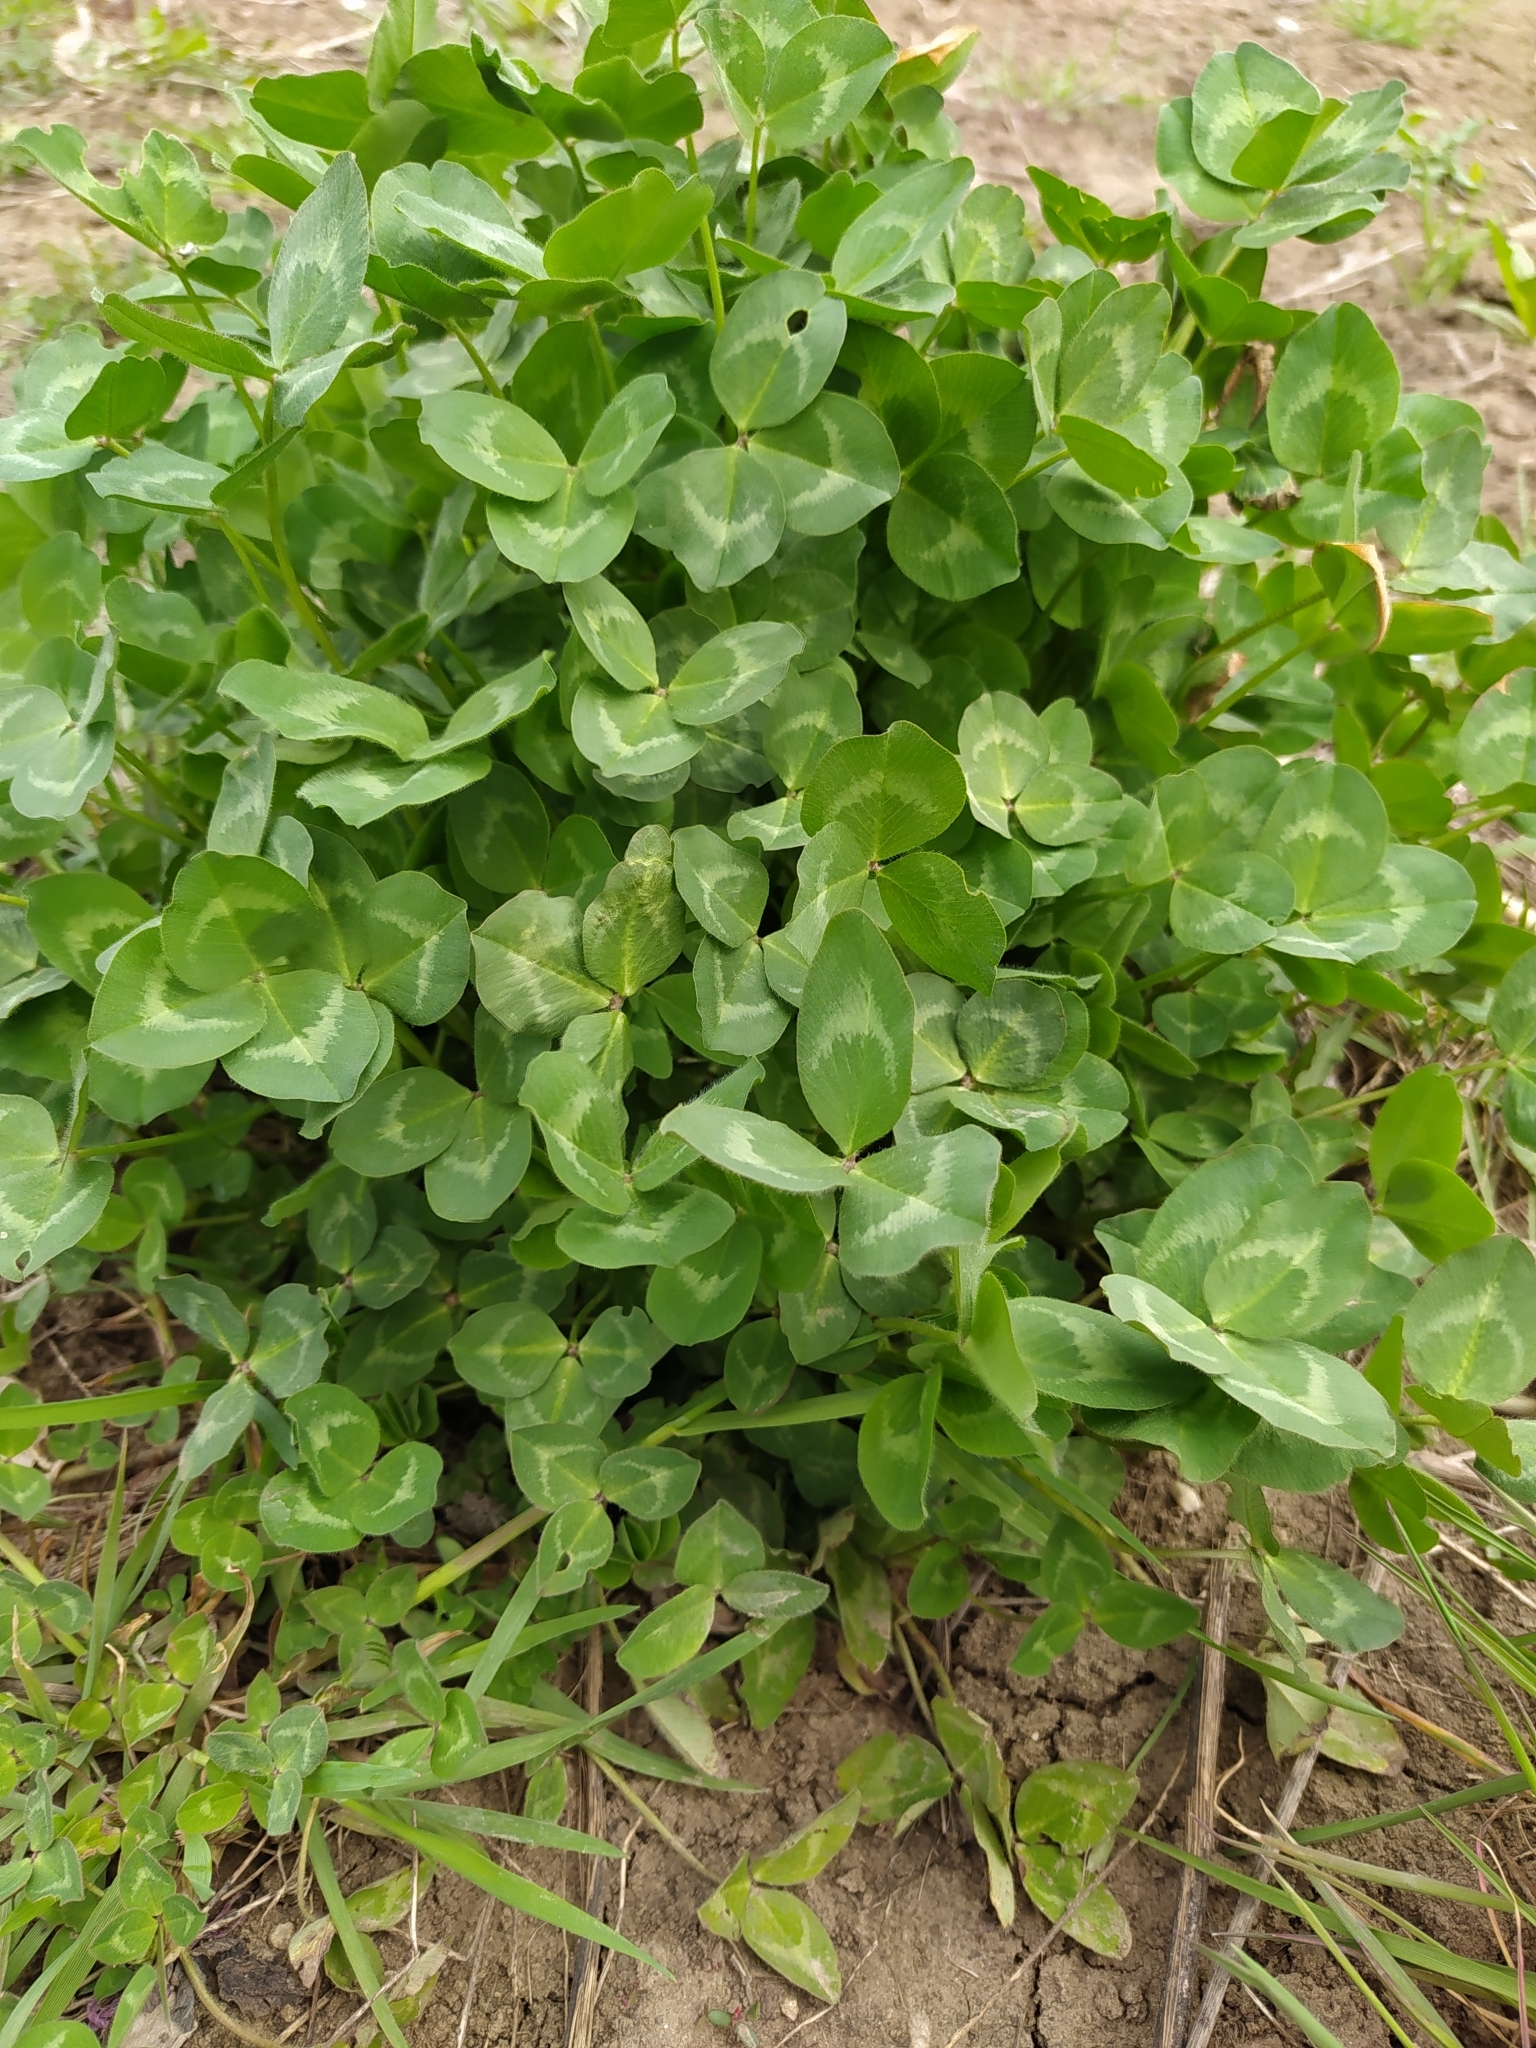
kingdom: Plantae
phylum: Tracheophyta
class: Magnoliopsida
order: Fabales
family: Fabaceae
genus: Trifolium
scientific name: Trifolium pratense
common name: Red clover
